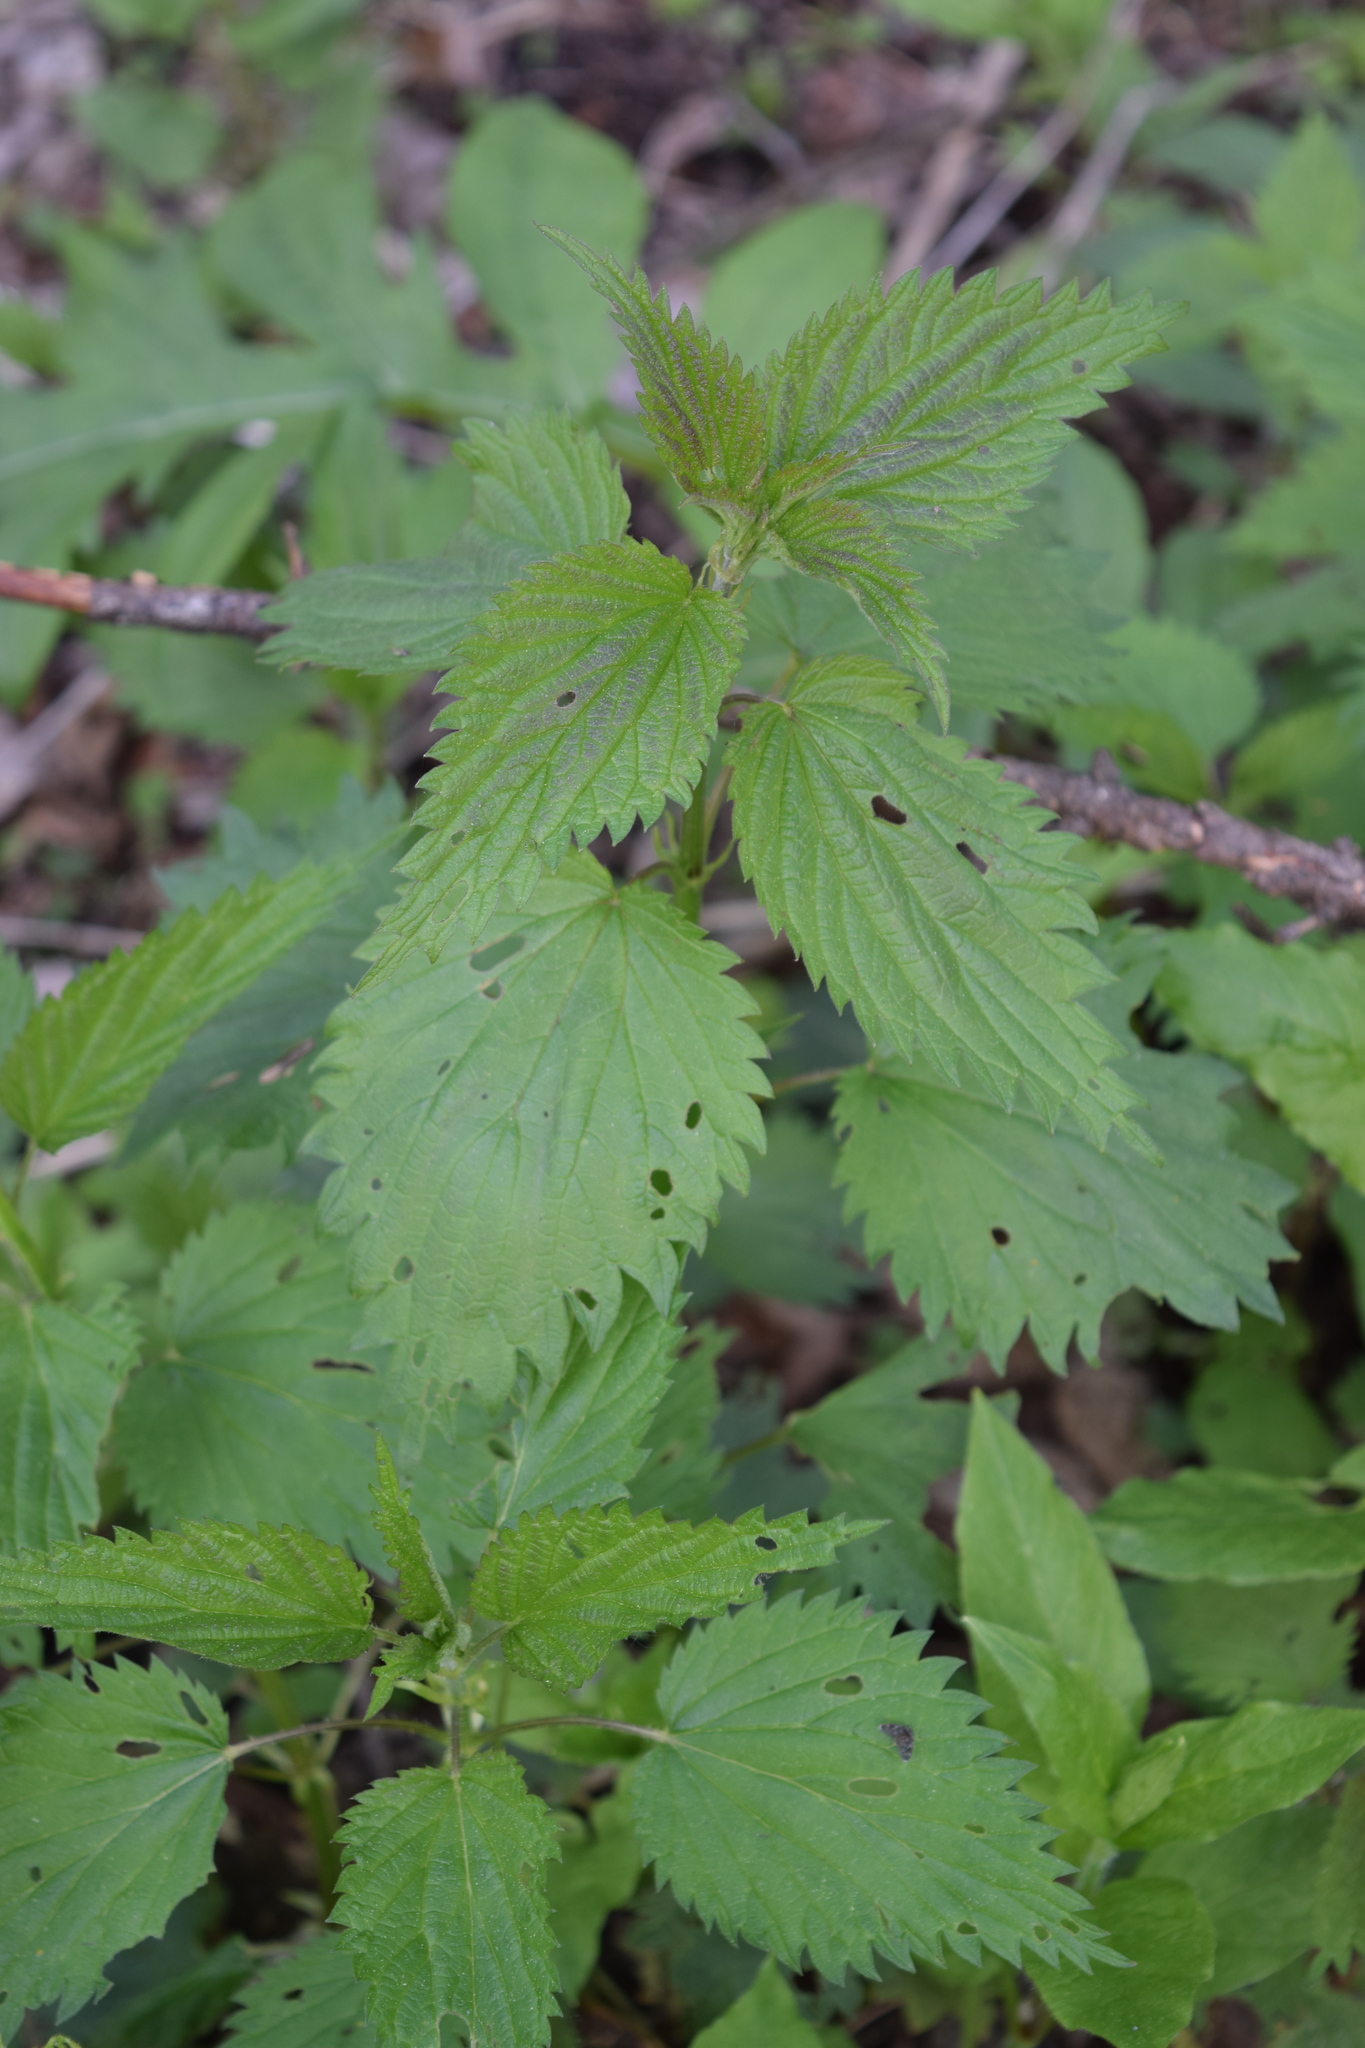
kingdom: Plantae
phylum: Tracheophyta
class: Magnoliopsida
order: Rosales
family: Urticaceae
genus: Urtica
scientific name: Urtica dioica
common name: Common nettle
